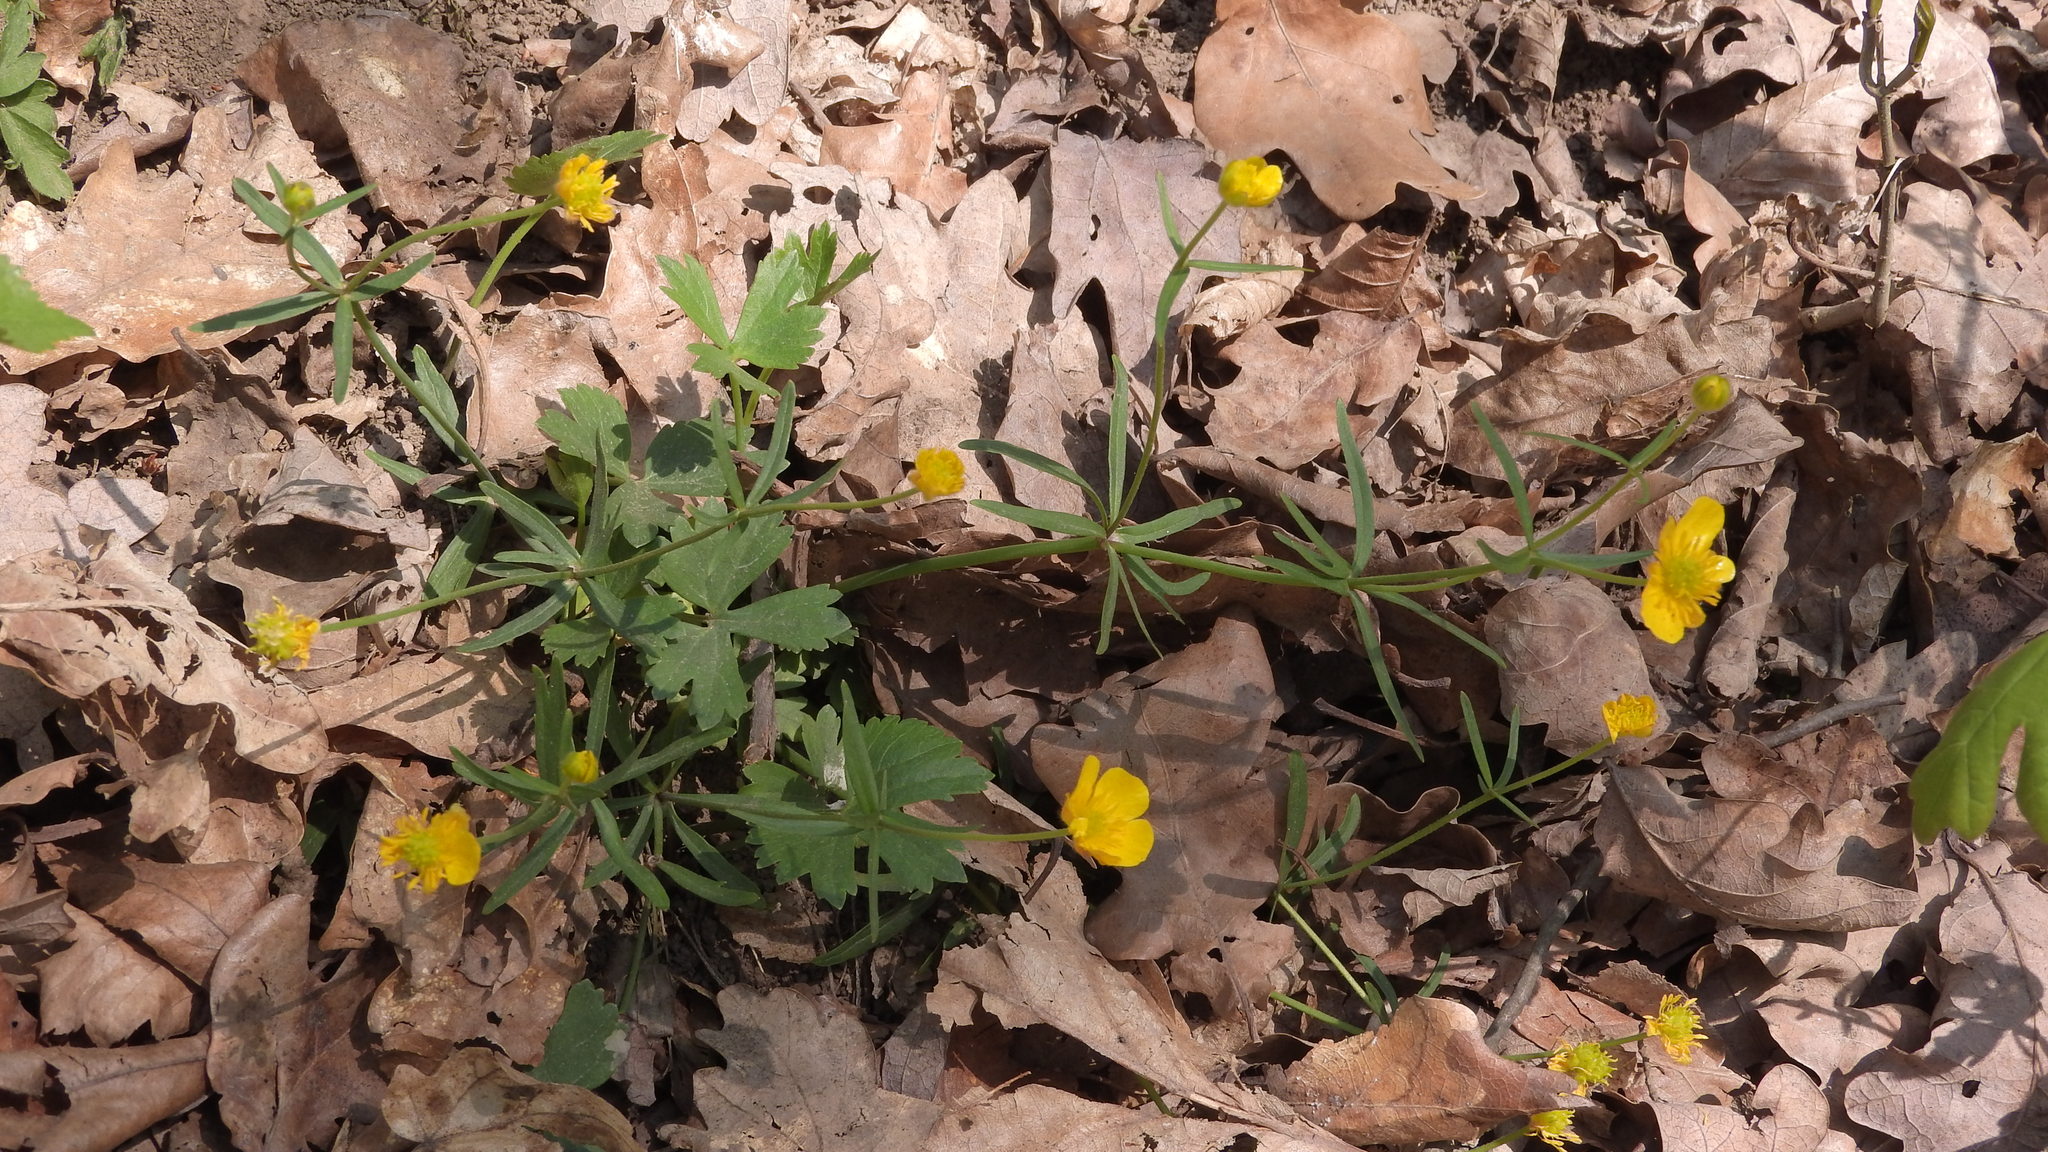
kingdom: Plantae
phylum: Tracheophyta
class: Magnoliopsida
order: Ranunculales
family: Ranunculaceae
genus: Ranunculus
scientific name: Ranunculus auricomus
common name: Goldilocks buttercup
